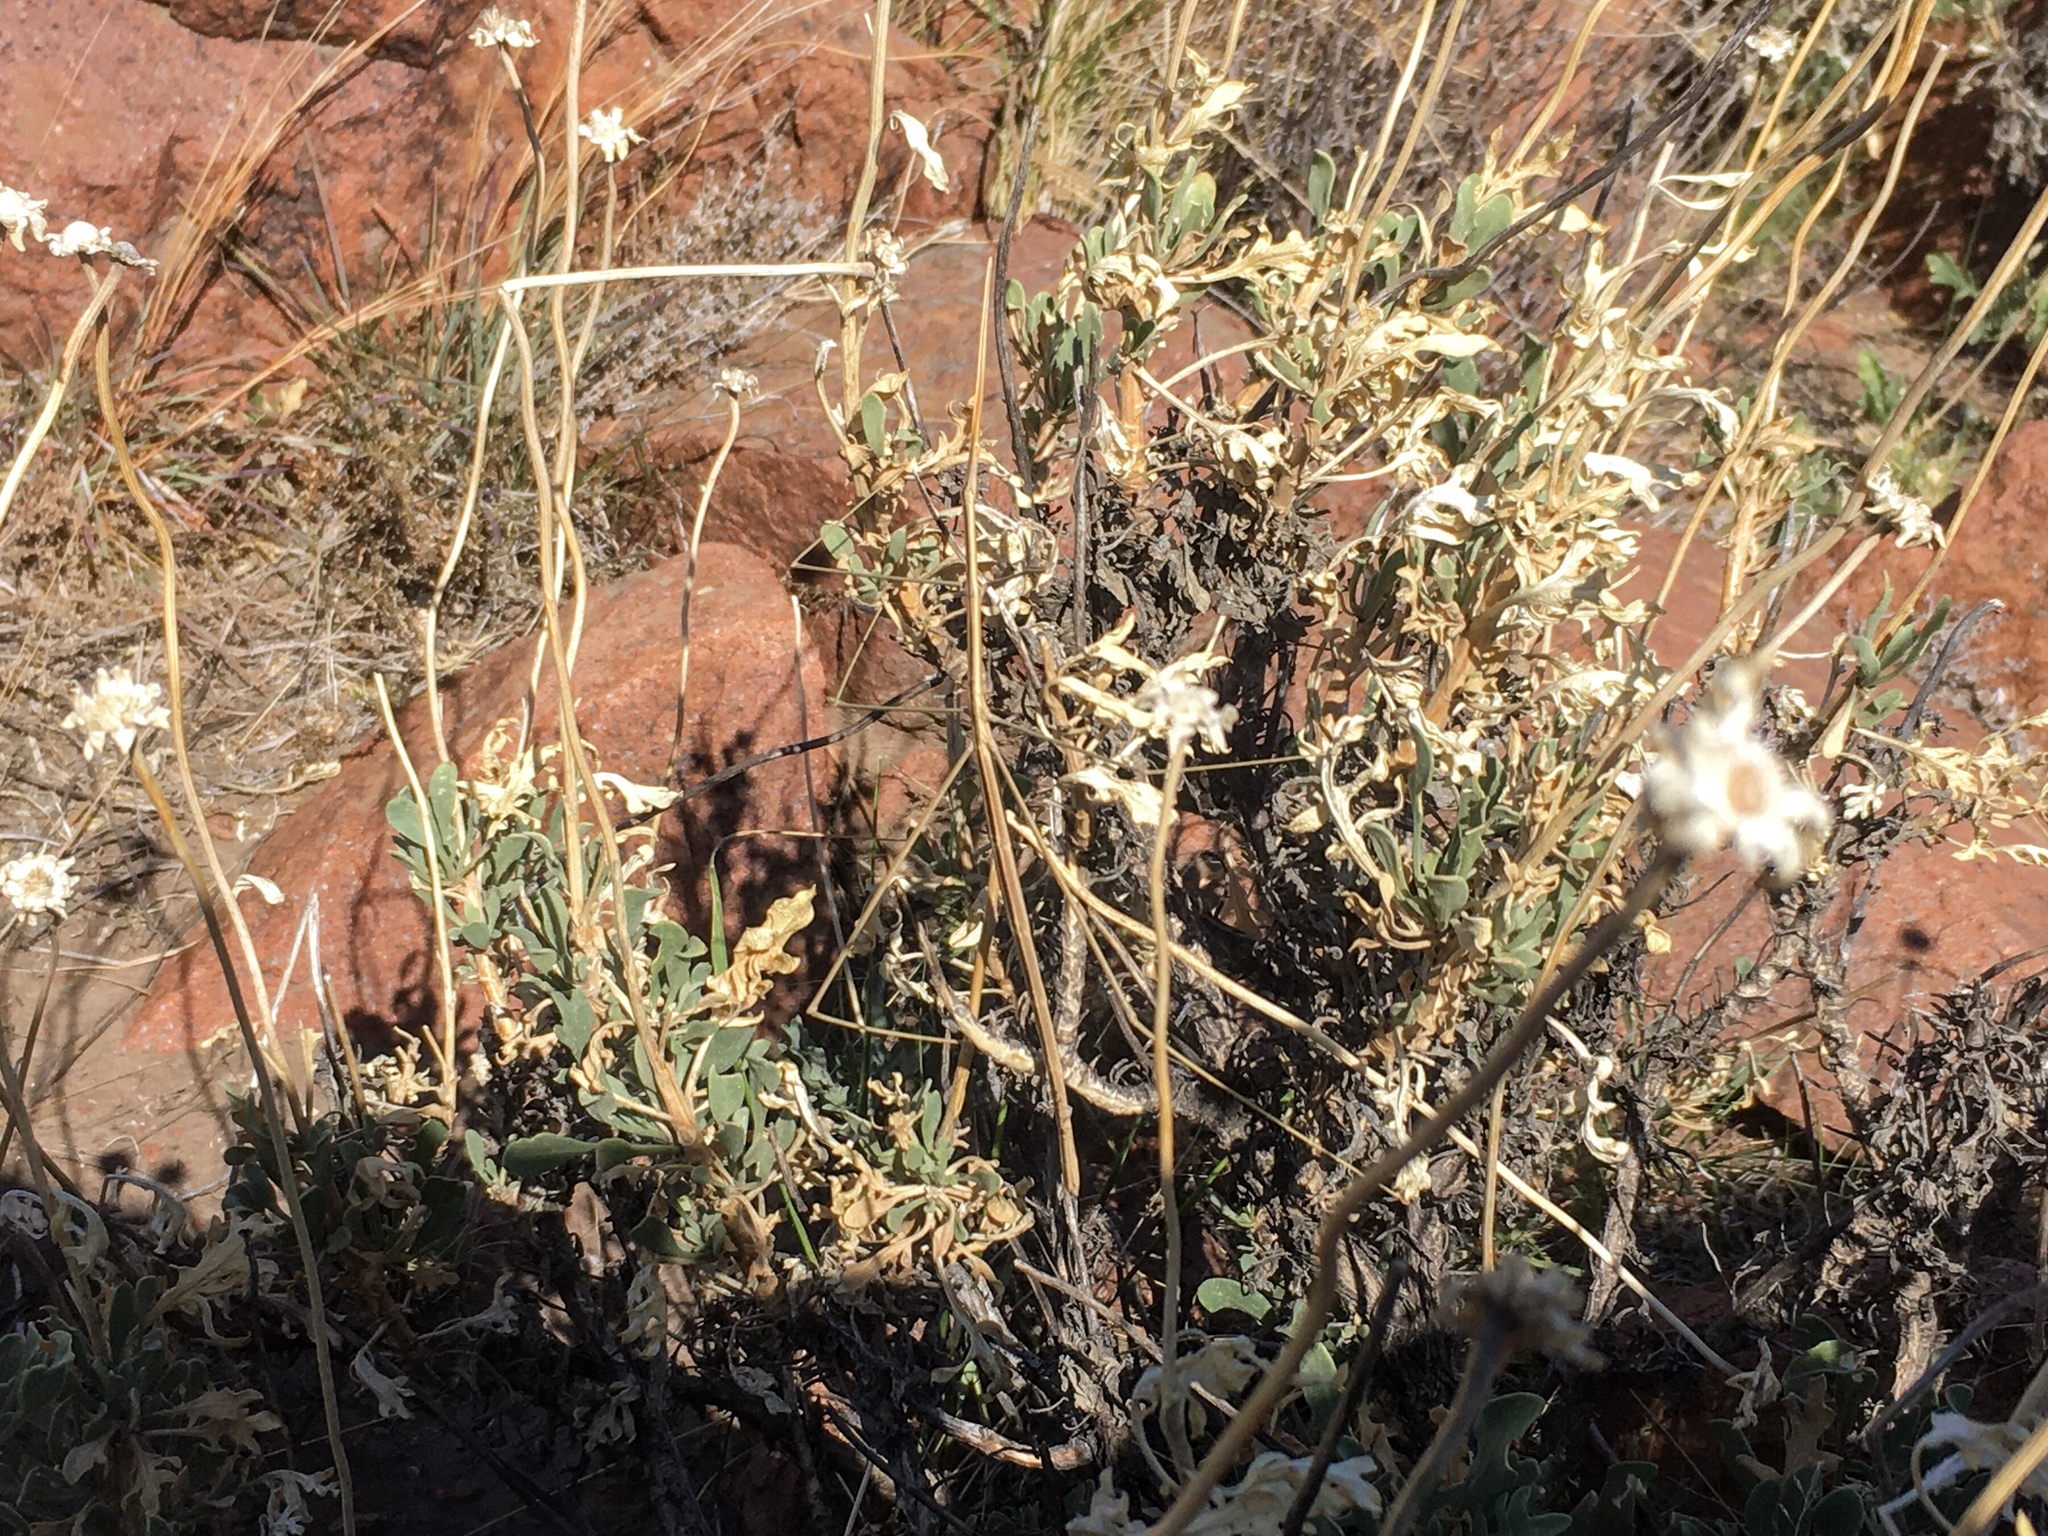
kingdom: Animalia
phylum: Arthropoda
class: Insecta
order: Orthoptera
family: Proscopiidae
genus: Carphoproscopia
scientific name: Carphoproscopia lancea
